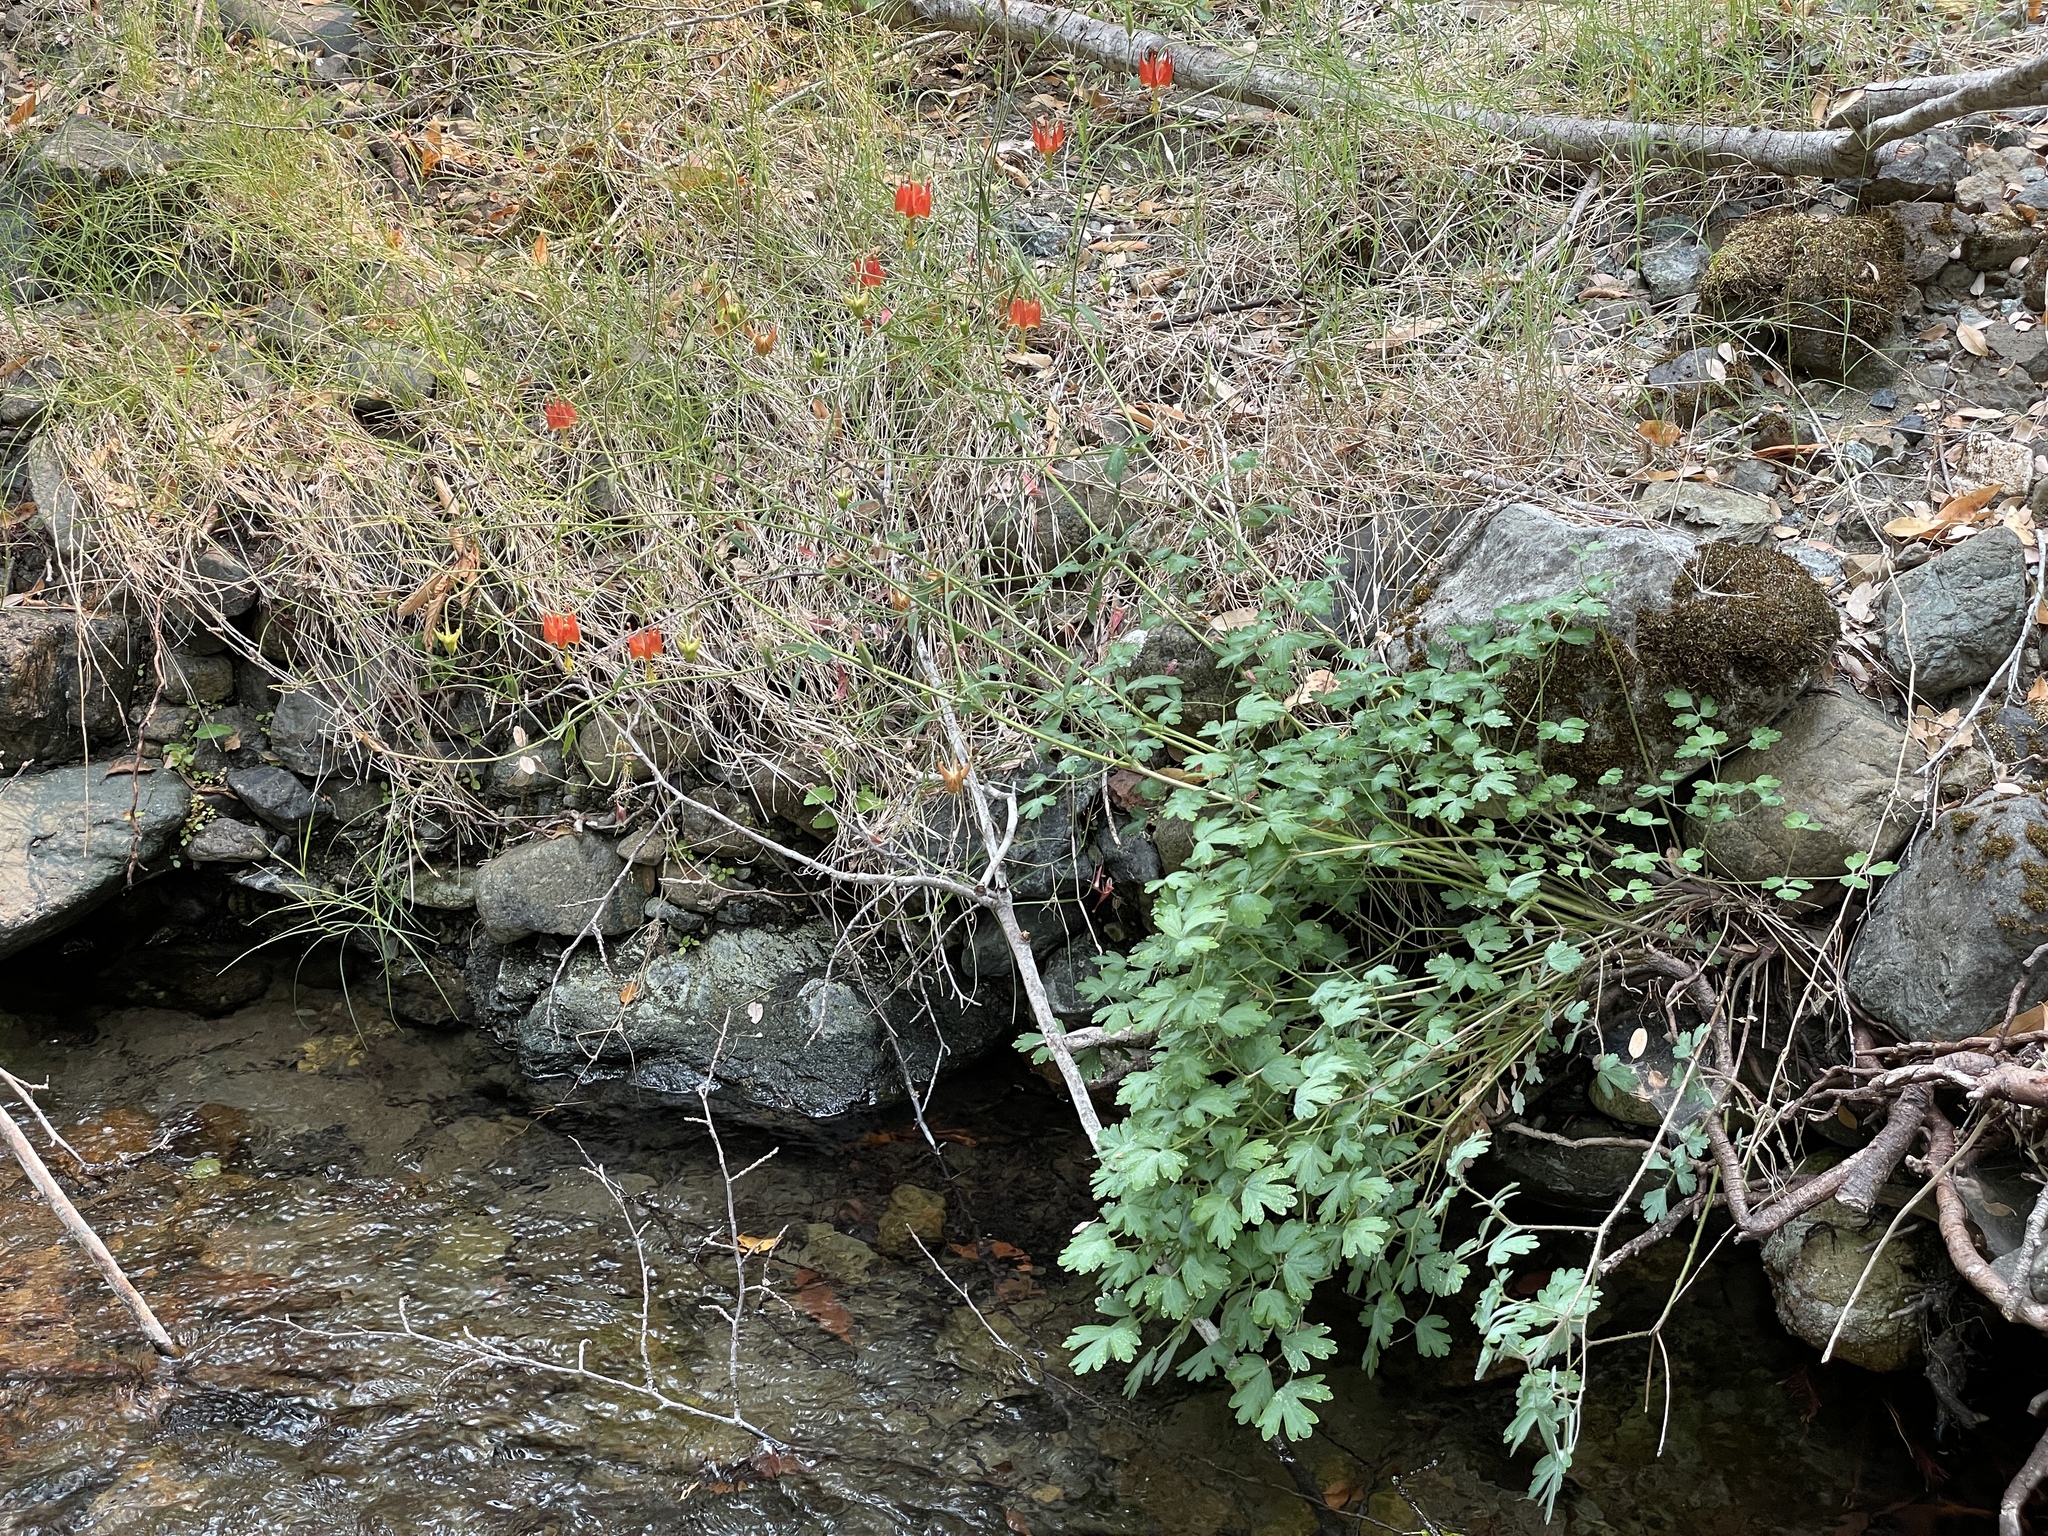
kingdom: Plantae
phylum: Tracheophyta
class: Magnoliopsida
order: Ranunculales
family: Ranunculaceae
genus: Aquilegia
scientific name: Aquilegia eximia
